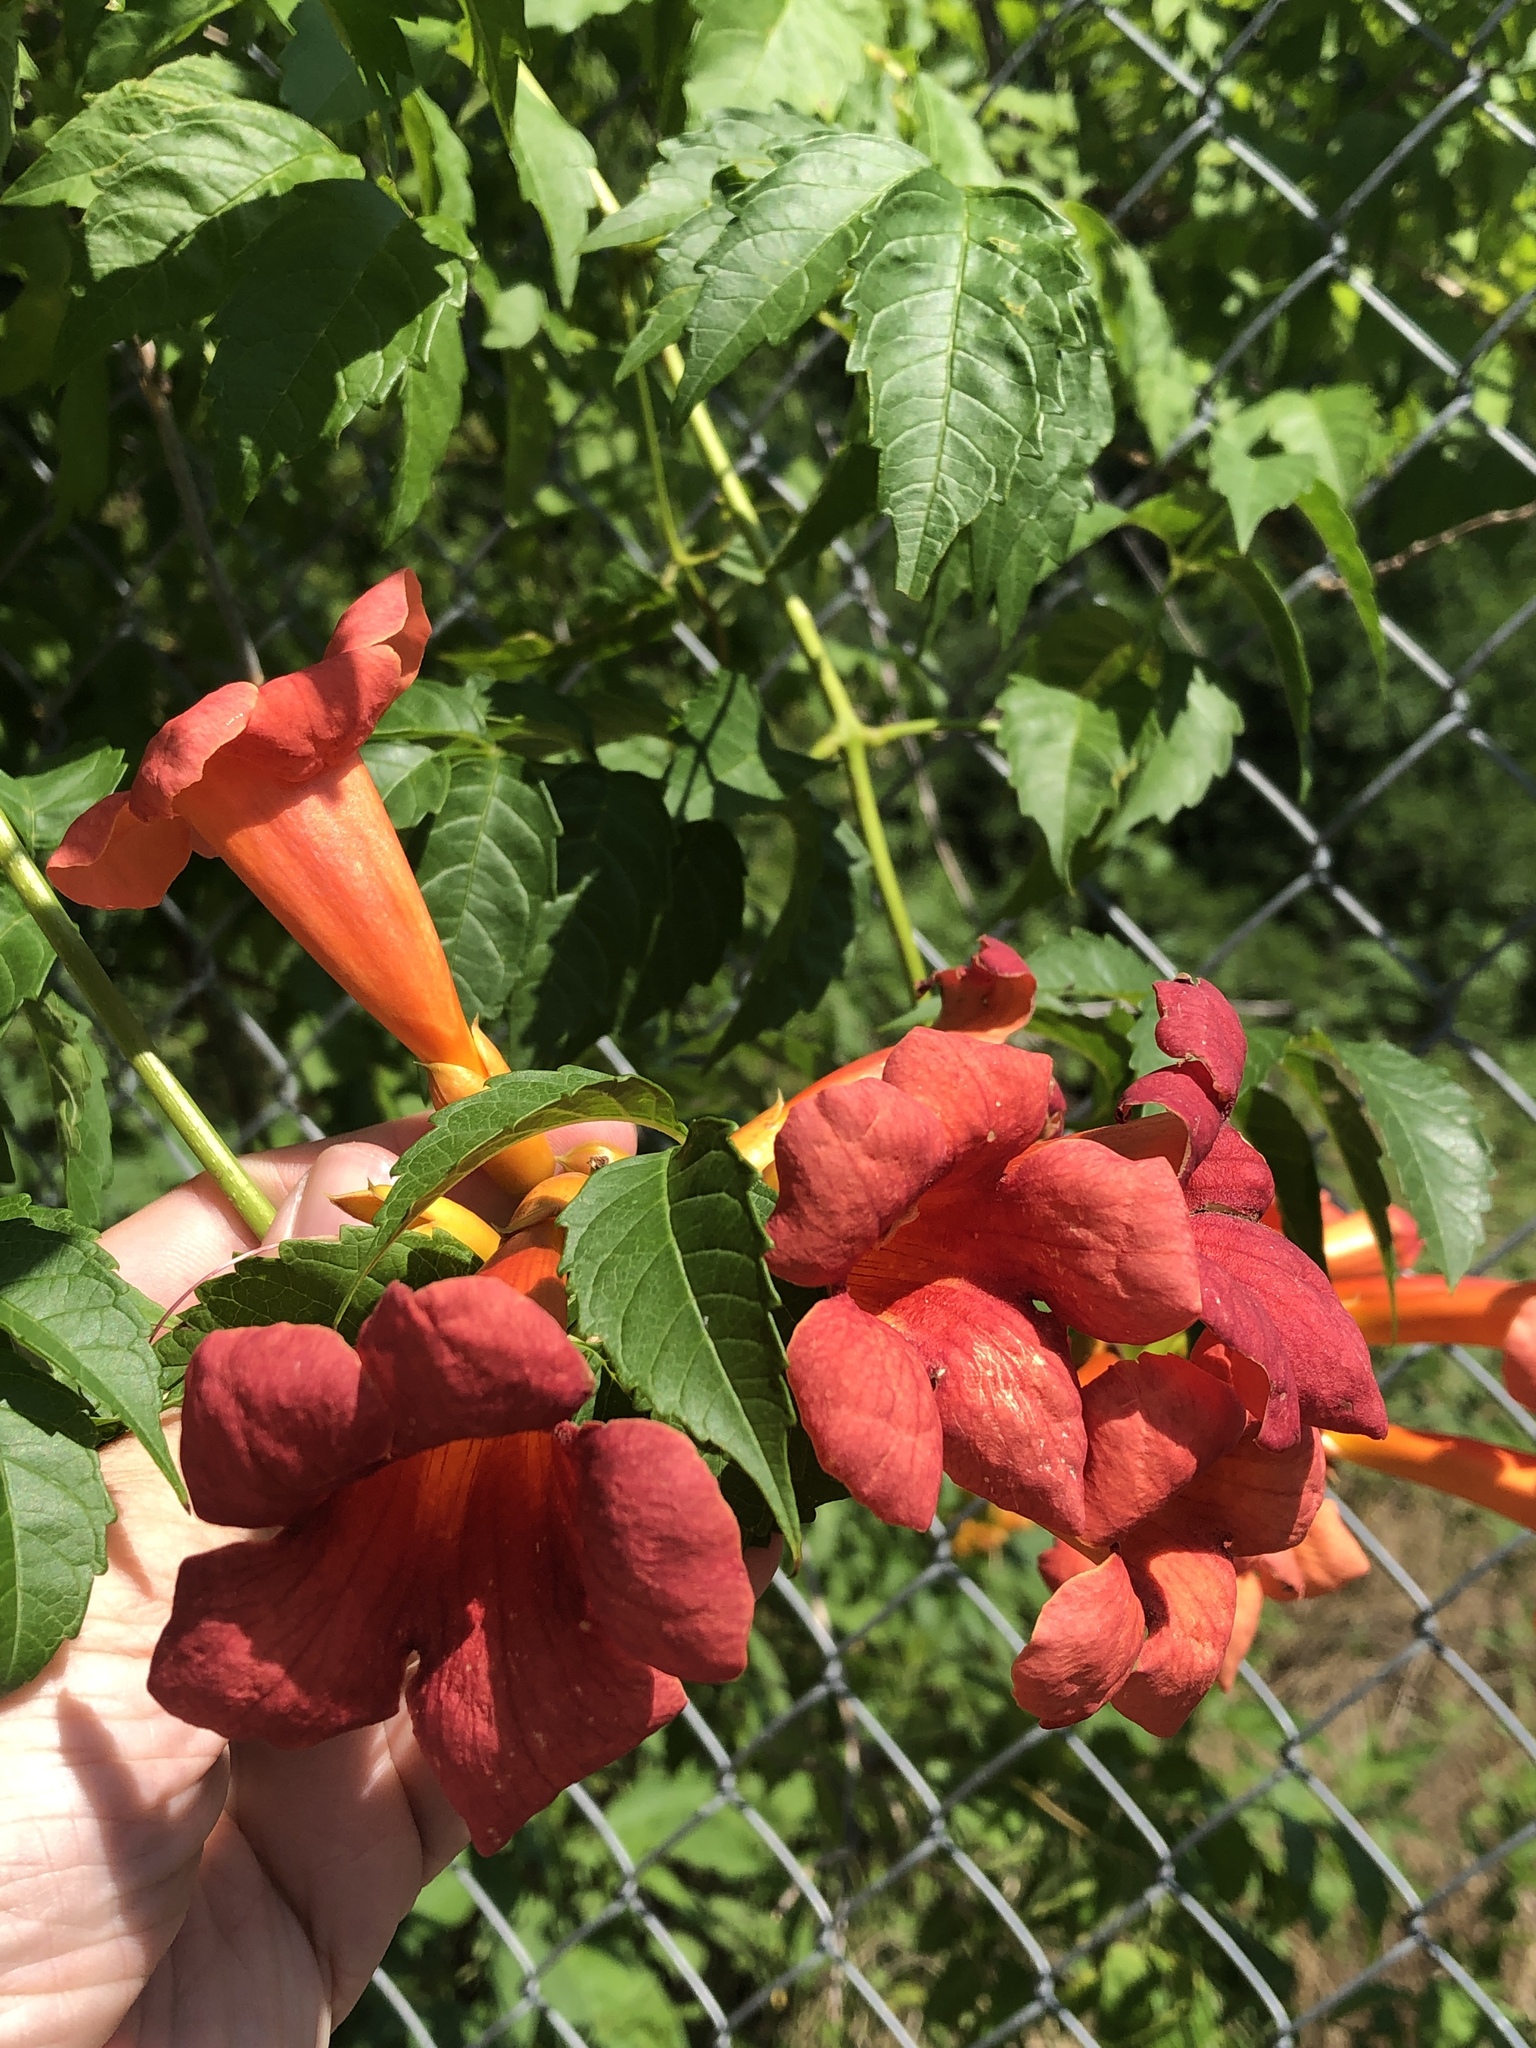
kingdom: Plantae
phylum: Tracheophyta
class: Magnoliopsida
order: Lamiales
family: Bignoniaceae
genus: Campsis
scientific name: Campsis radicans
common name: Trumpet-creeper
